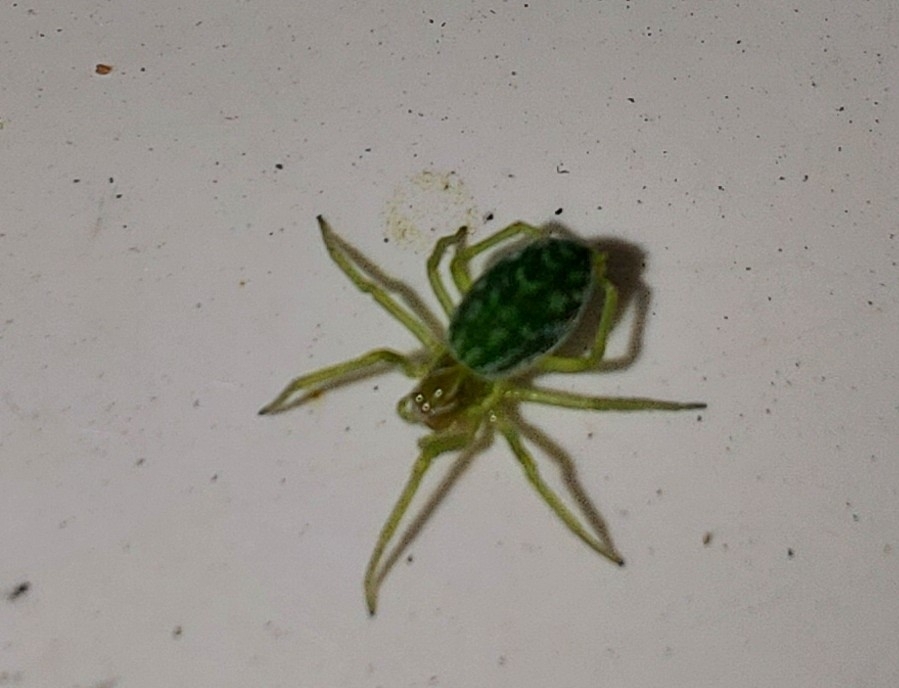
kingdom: Animalia
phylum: Arthropoda
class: Arachnida
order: Araneae
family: Dictynidae
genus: Nigma
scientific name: Nigma walckenaeri
